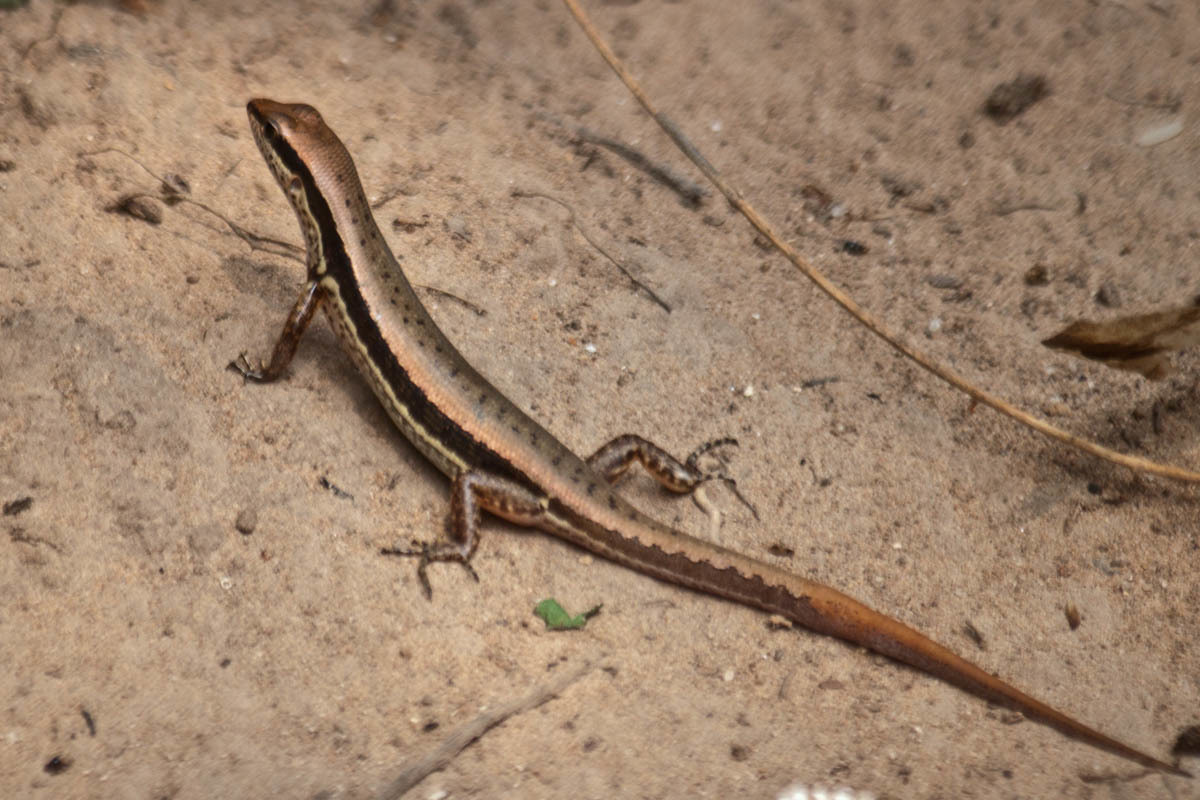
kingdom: Animalia
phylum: Chordata
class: Squamata
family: Scincidae
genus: Sphenomorphus
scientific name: Sphenomorphus maculatus
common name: Maculated forest skink
